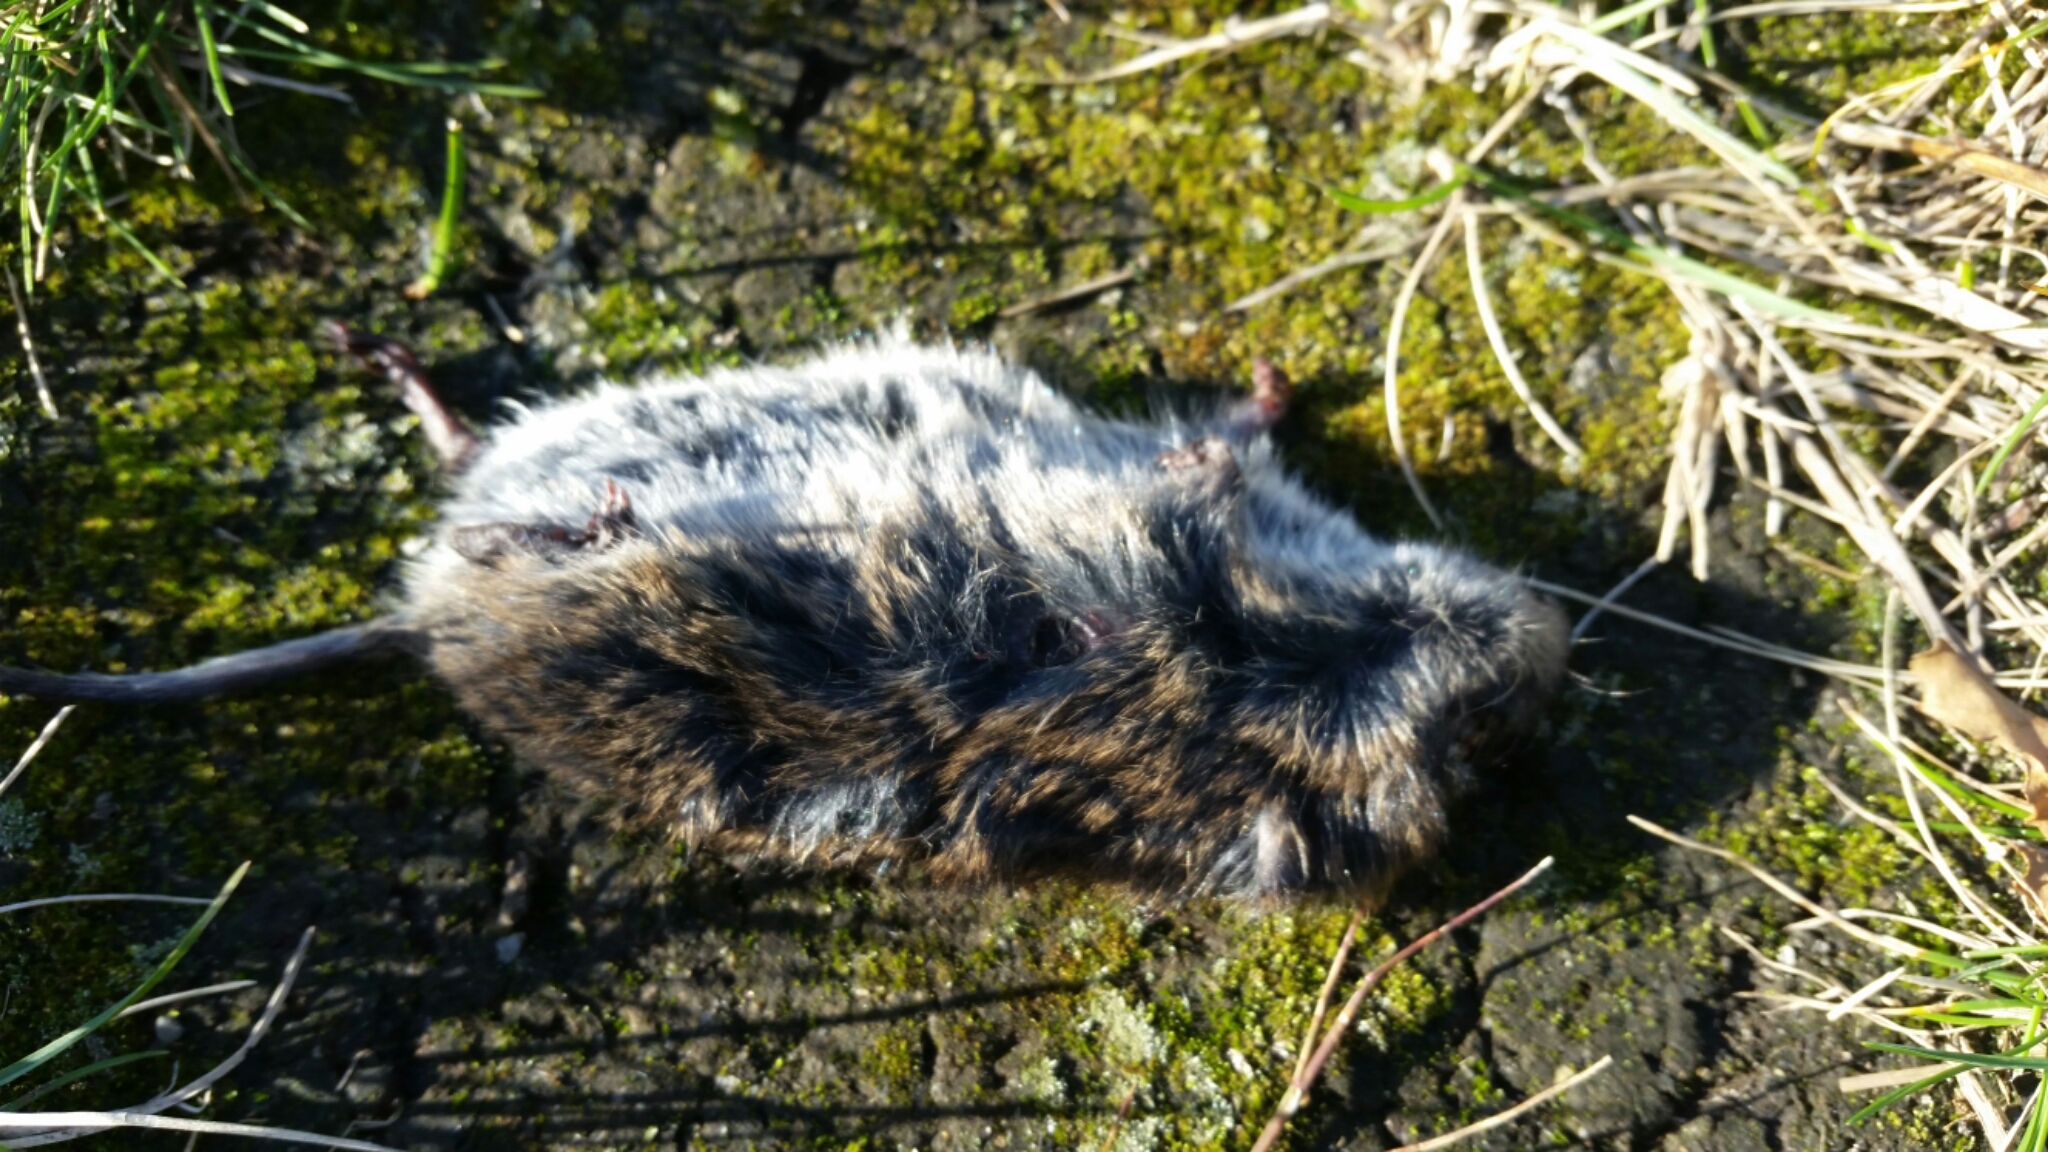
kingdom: Animalia
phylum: Chordata
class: Mammalia
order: Rodentia
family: Cricetidae
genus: Microtus
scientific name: Microtus pennsylvanicus
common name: Meadow vole
